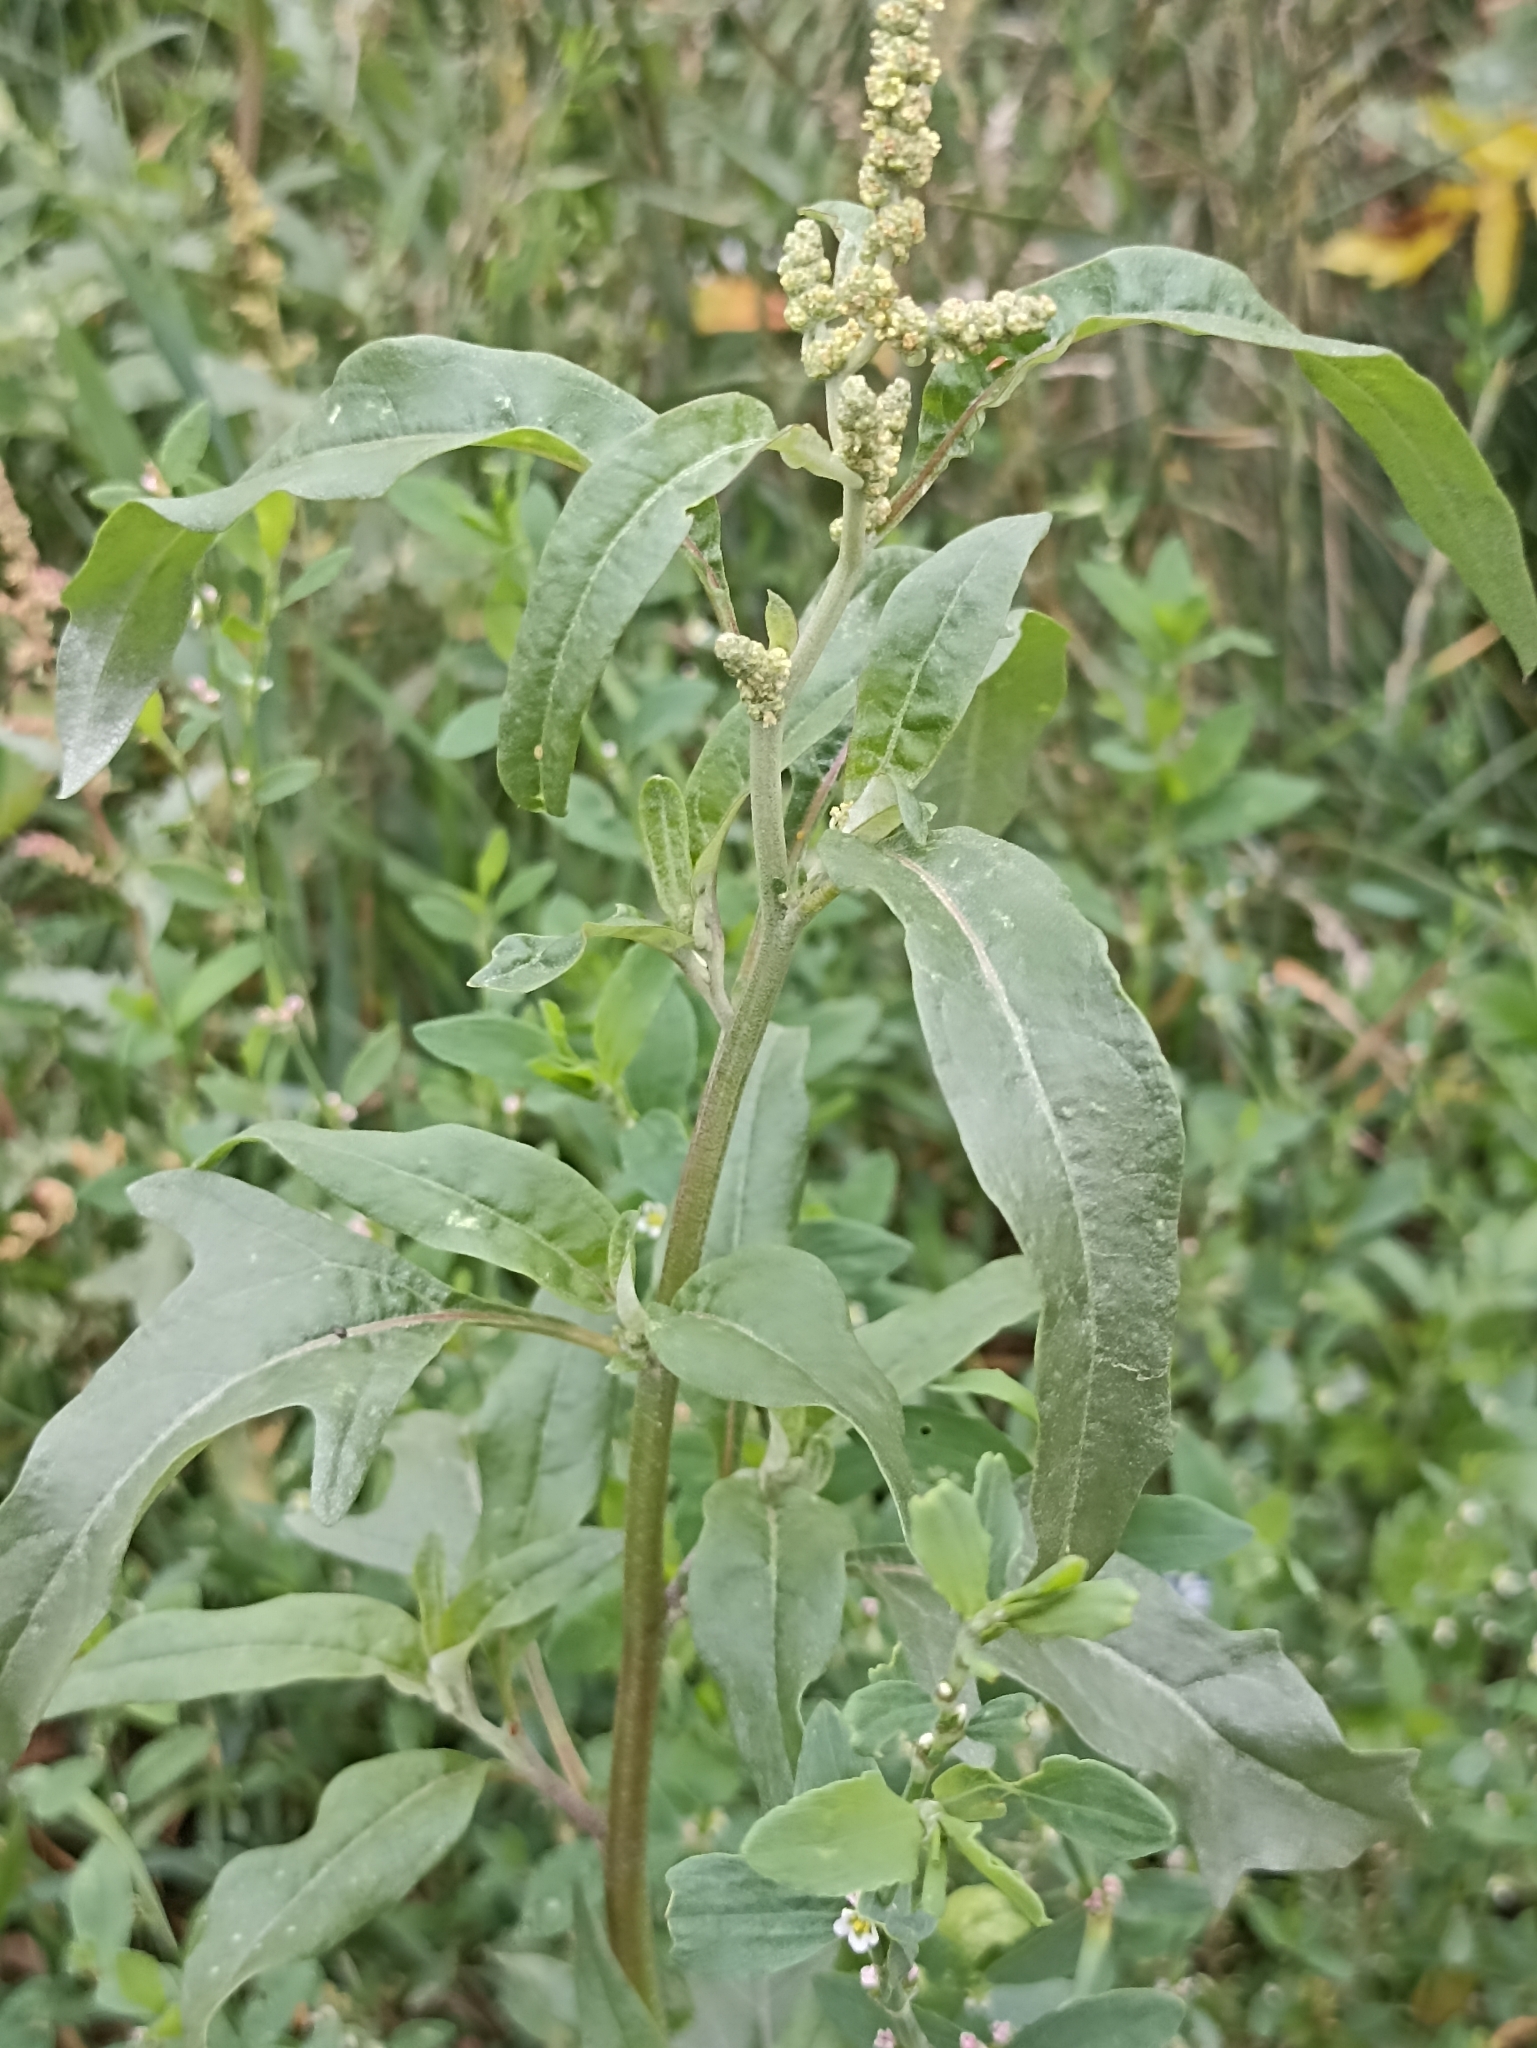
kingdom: Plantae
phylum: Tracheophyta
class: Magnoliopsida
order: Caryophyllales
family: Amaranthaceae
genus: Atriplex
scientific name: Atriplex tatarica
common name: Tatarian orache
